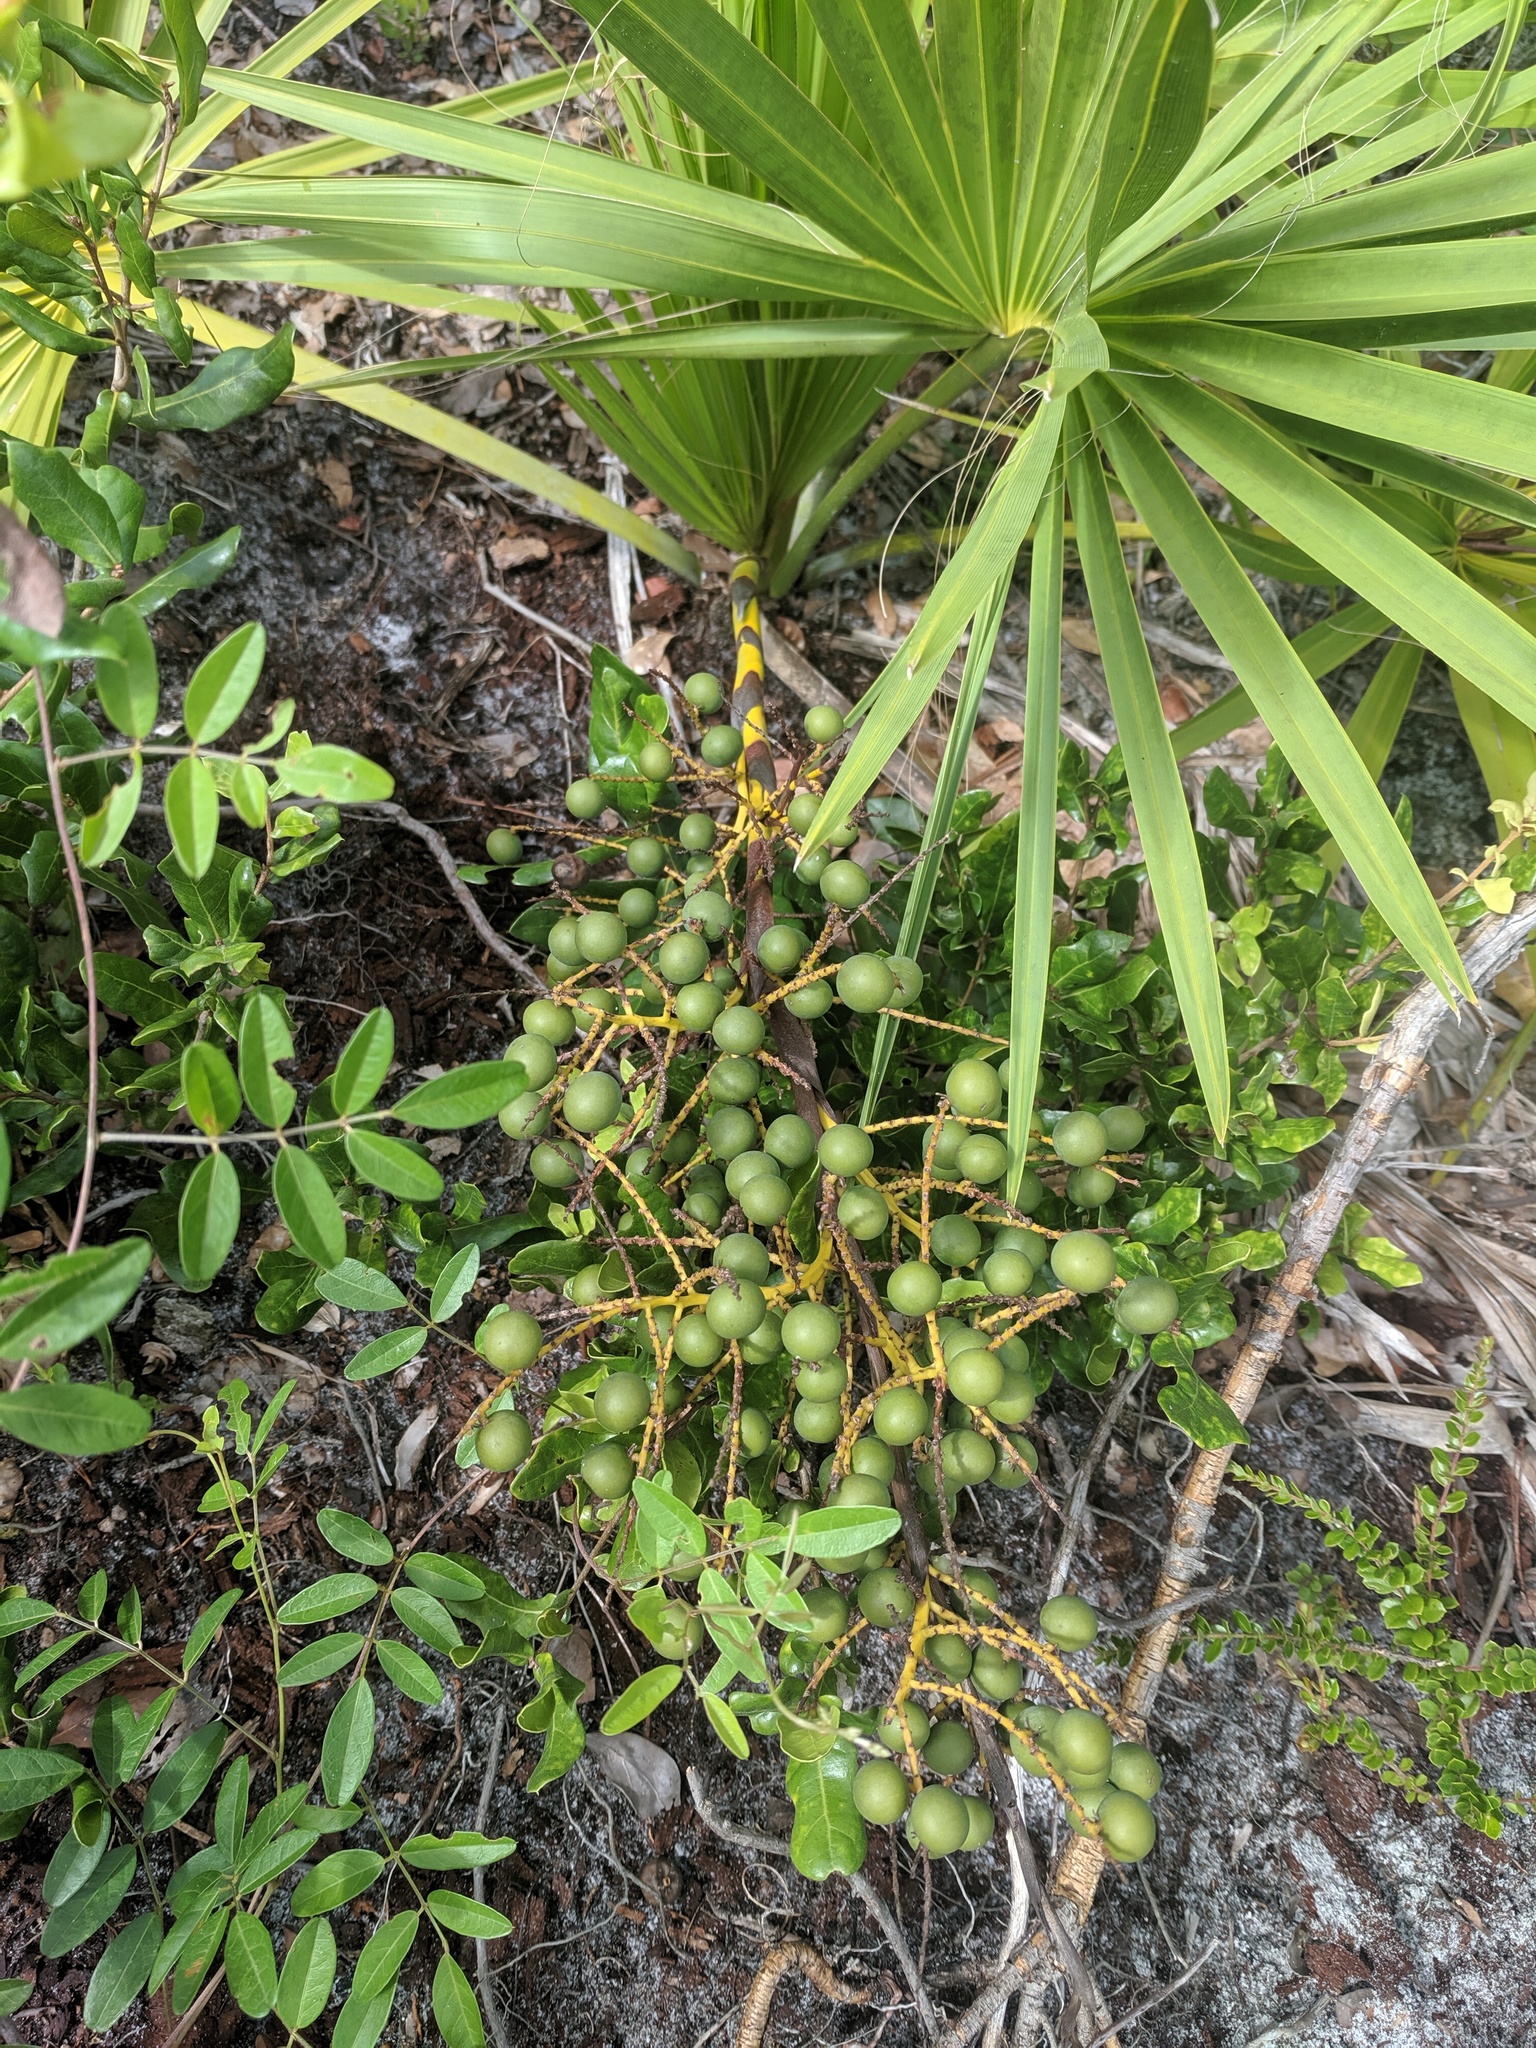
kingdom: Plantae
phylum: Tracheophyta
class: Liliopsida
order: Arecales
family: Arecaceae
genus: Sabal
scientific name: Sabal etonia
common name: Dwarf palmetto
